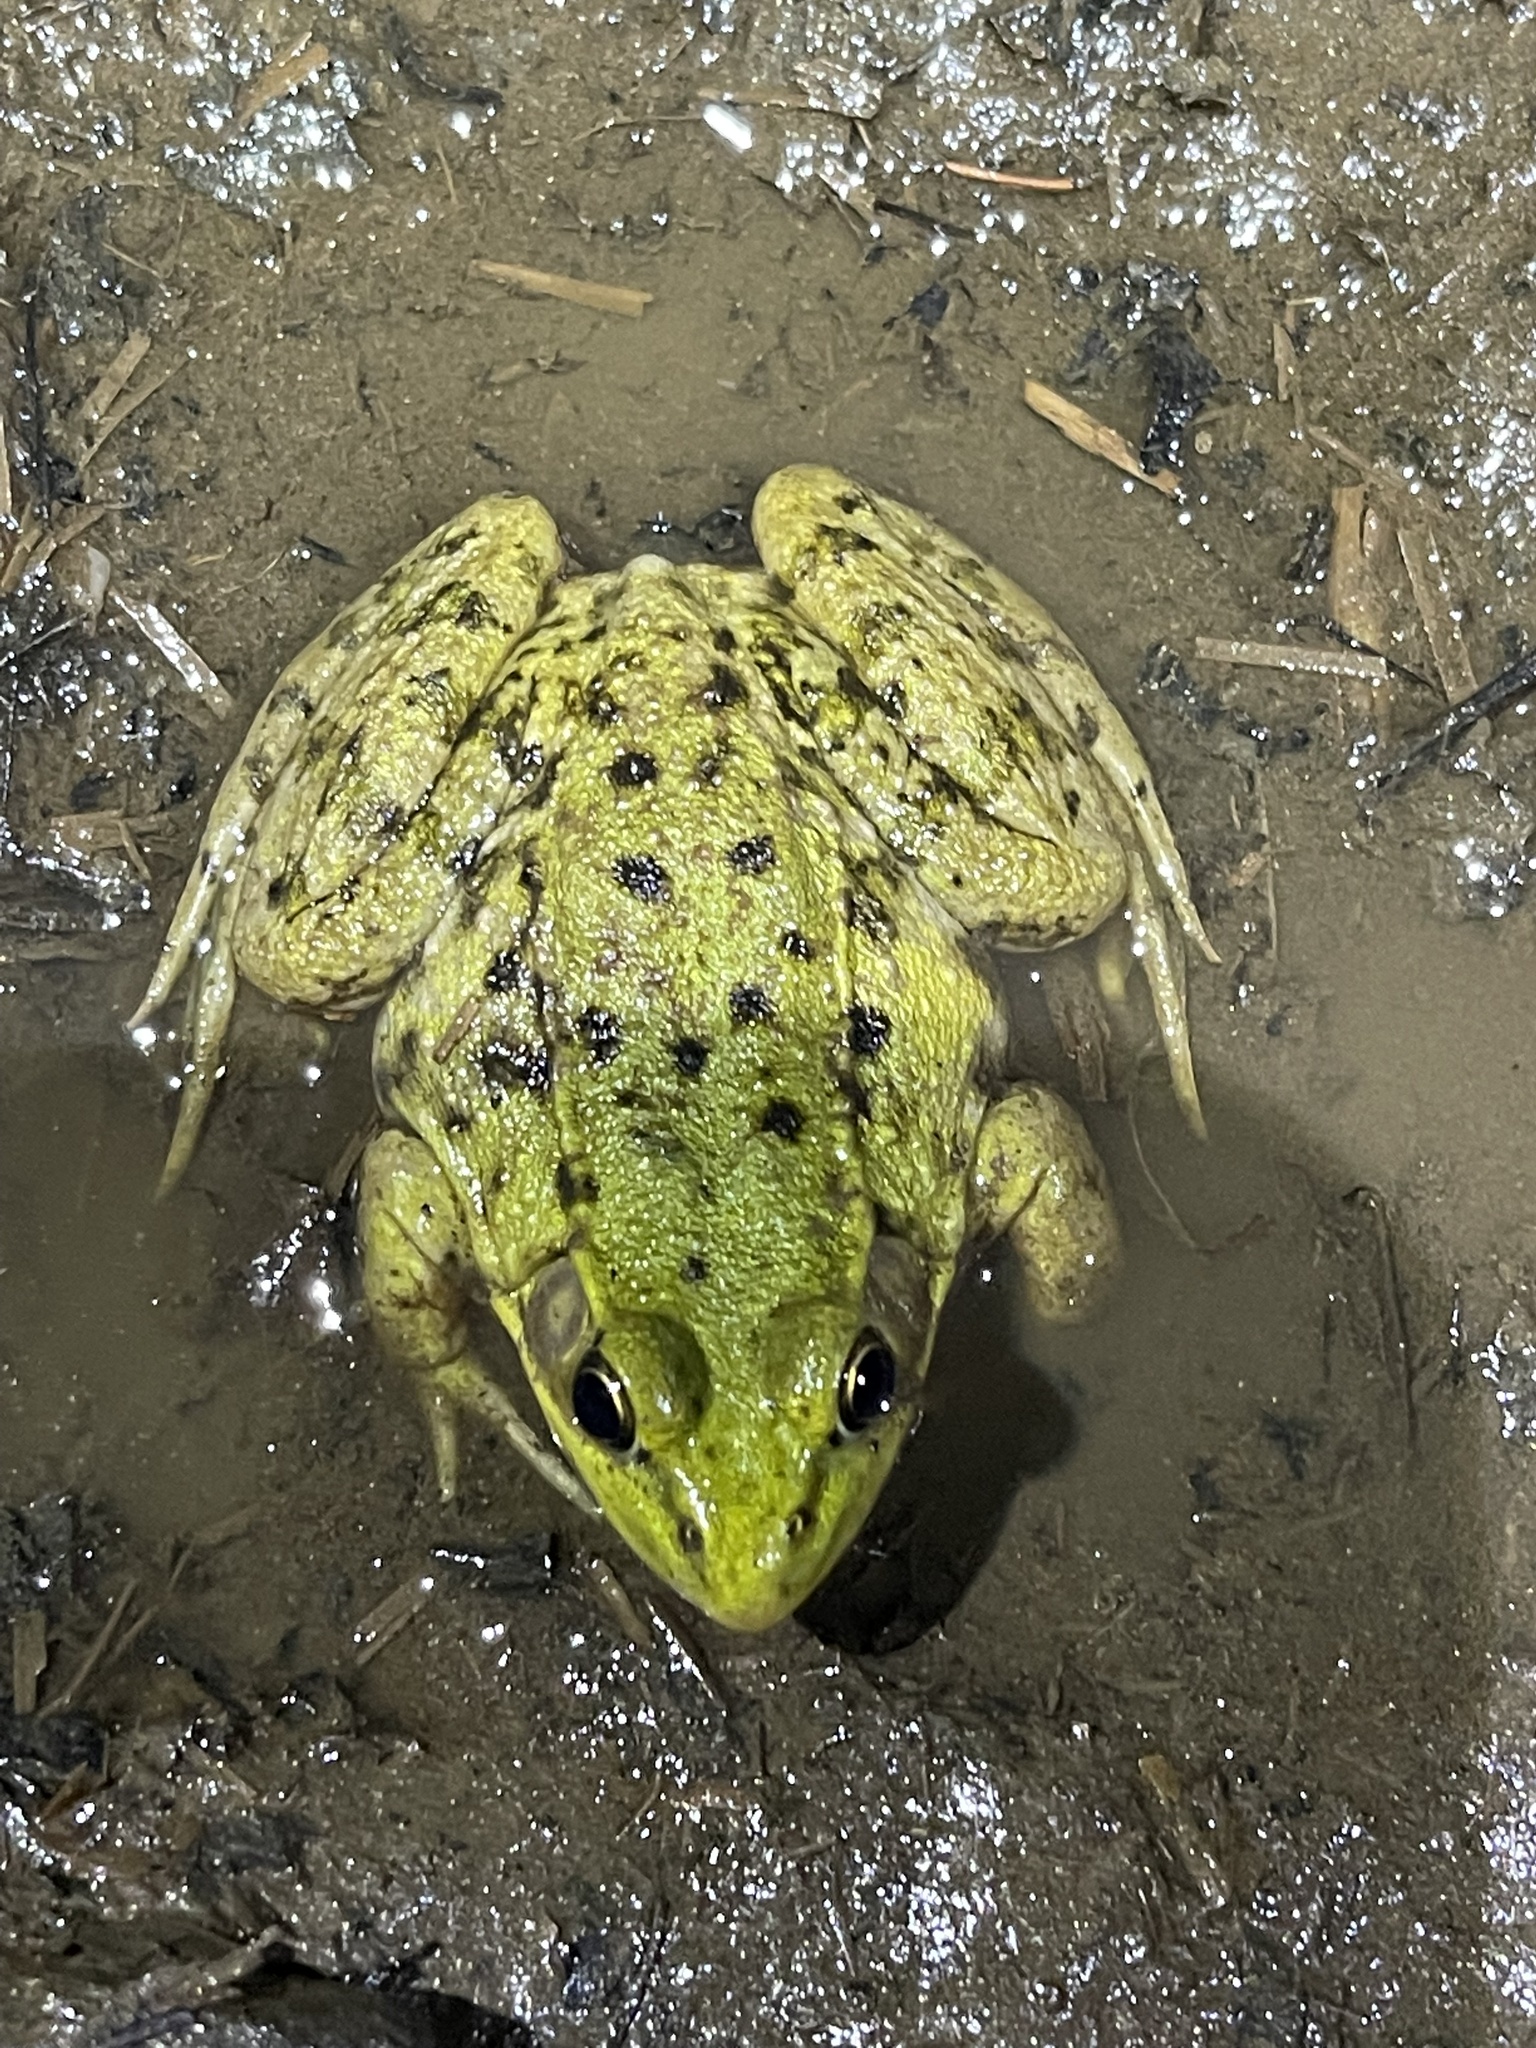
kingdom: Animalia
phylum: Chordata
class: Amphibia
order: Anura
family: Ranidae
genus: Lithobates
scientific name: Lithobates clamitans
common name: Green frog
